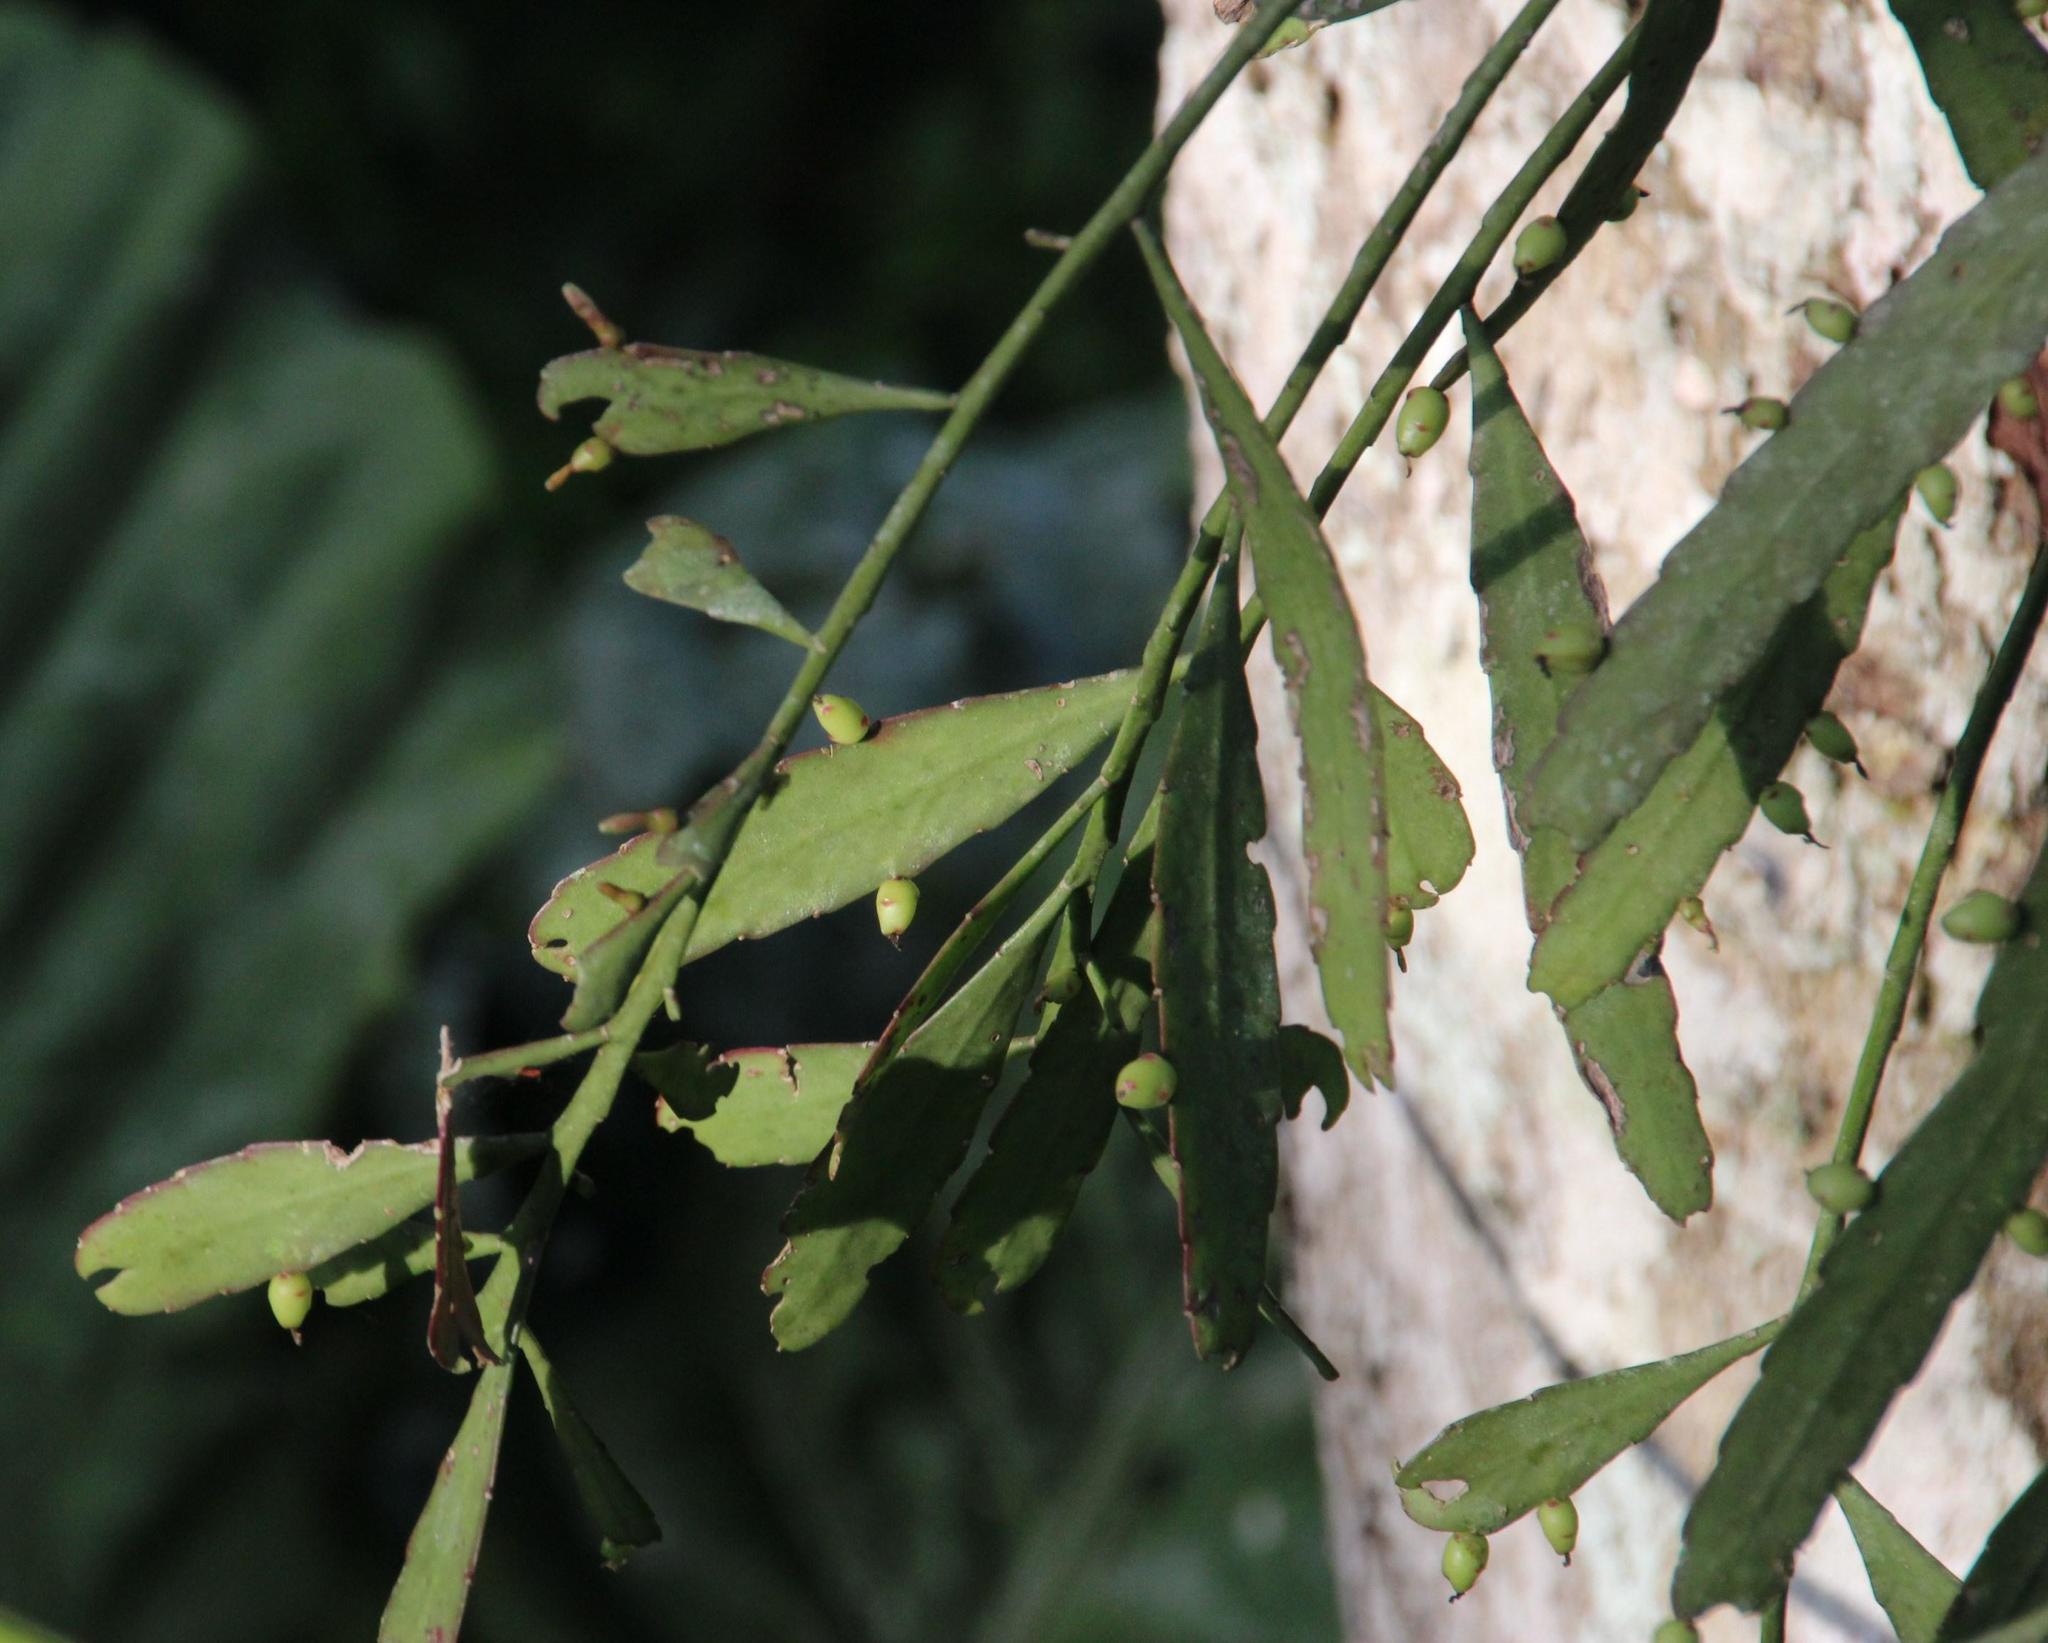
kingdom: Plantae
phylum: Tracheophyta
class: Magnoliopsida
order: Caryophyllales
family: Cactaceae
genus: Pseudorhipsalis
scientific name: Pseudorhipsalis ramulosa
